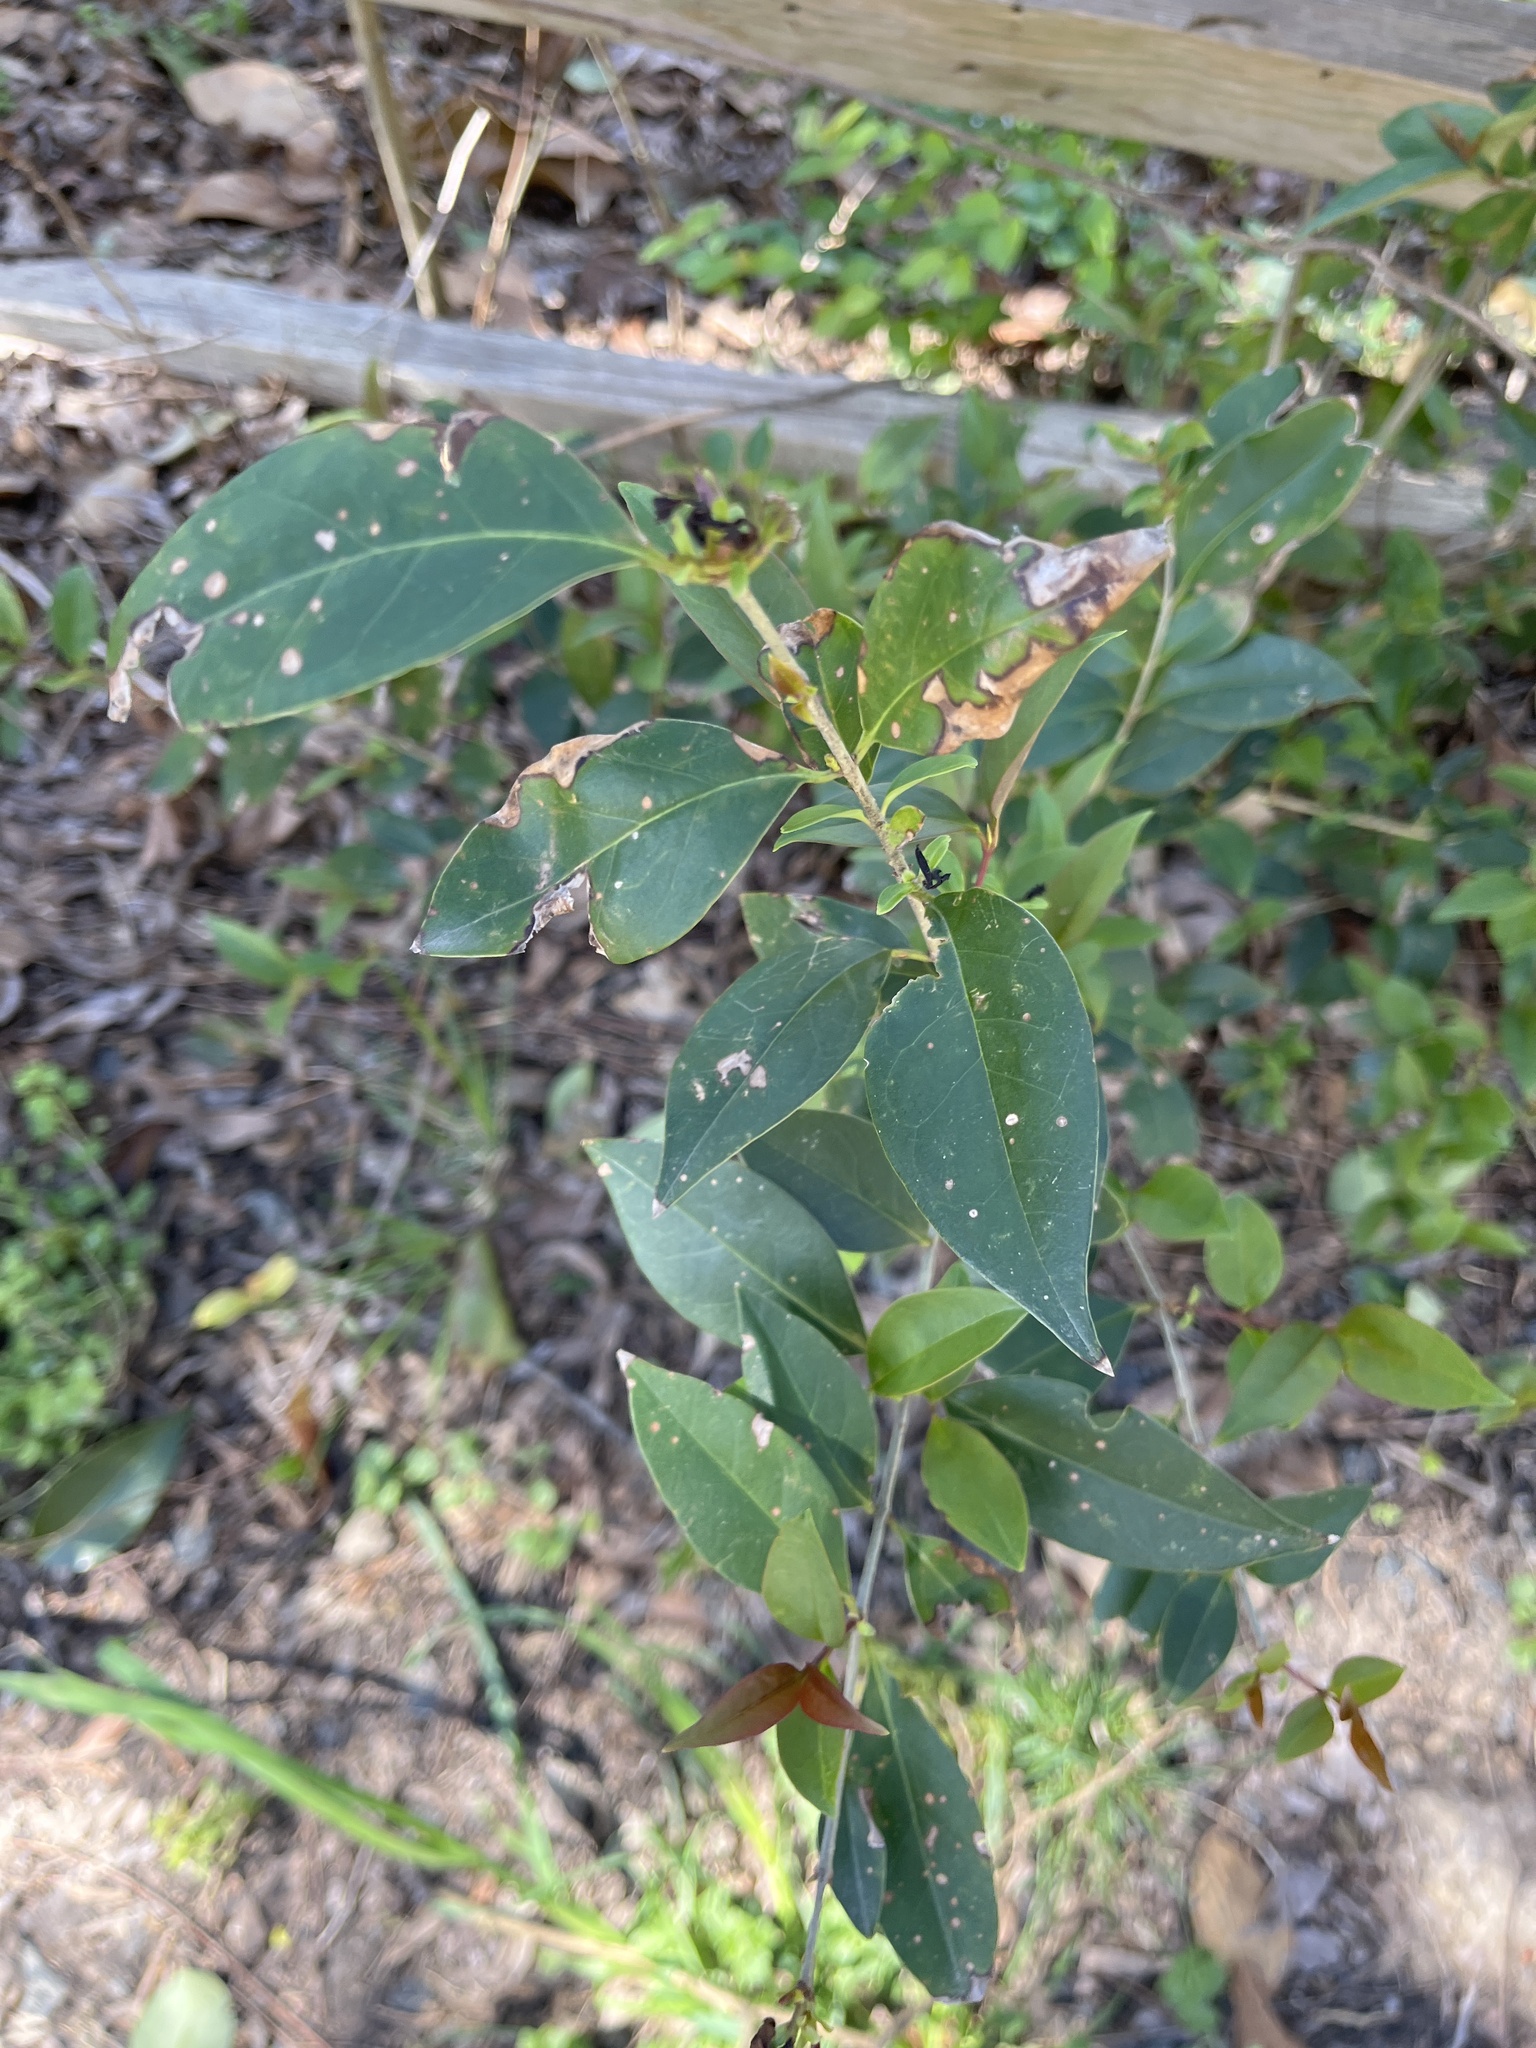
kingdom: Plantae
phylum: Tracheophyta
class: Magnoliopsida
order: Lamiales
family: Oleaceae
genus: Ligustrum
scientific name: Ligustrum lucidum
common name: Glossy privet
